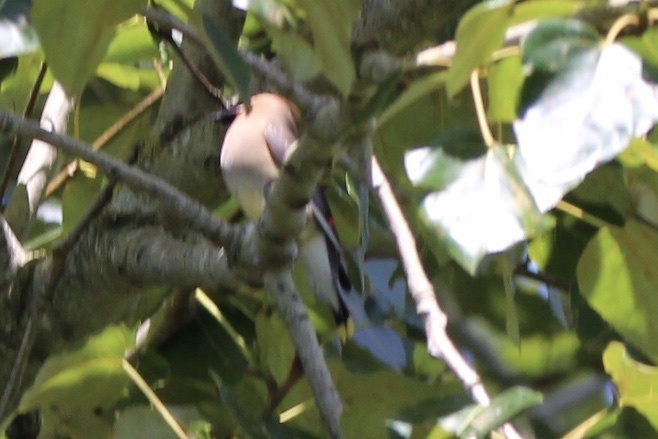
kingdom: Animalia
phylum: Chordata
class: Aves
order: Passeriformes
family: Bombycillidae
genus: Bombycilla
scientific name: Bombycilla cedrorum
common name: Cedar waxwing
